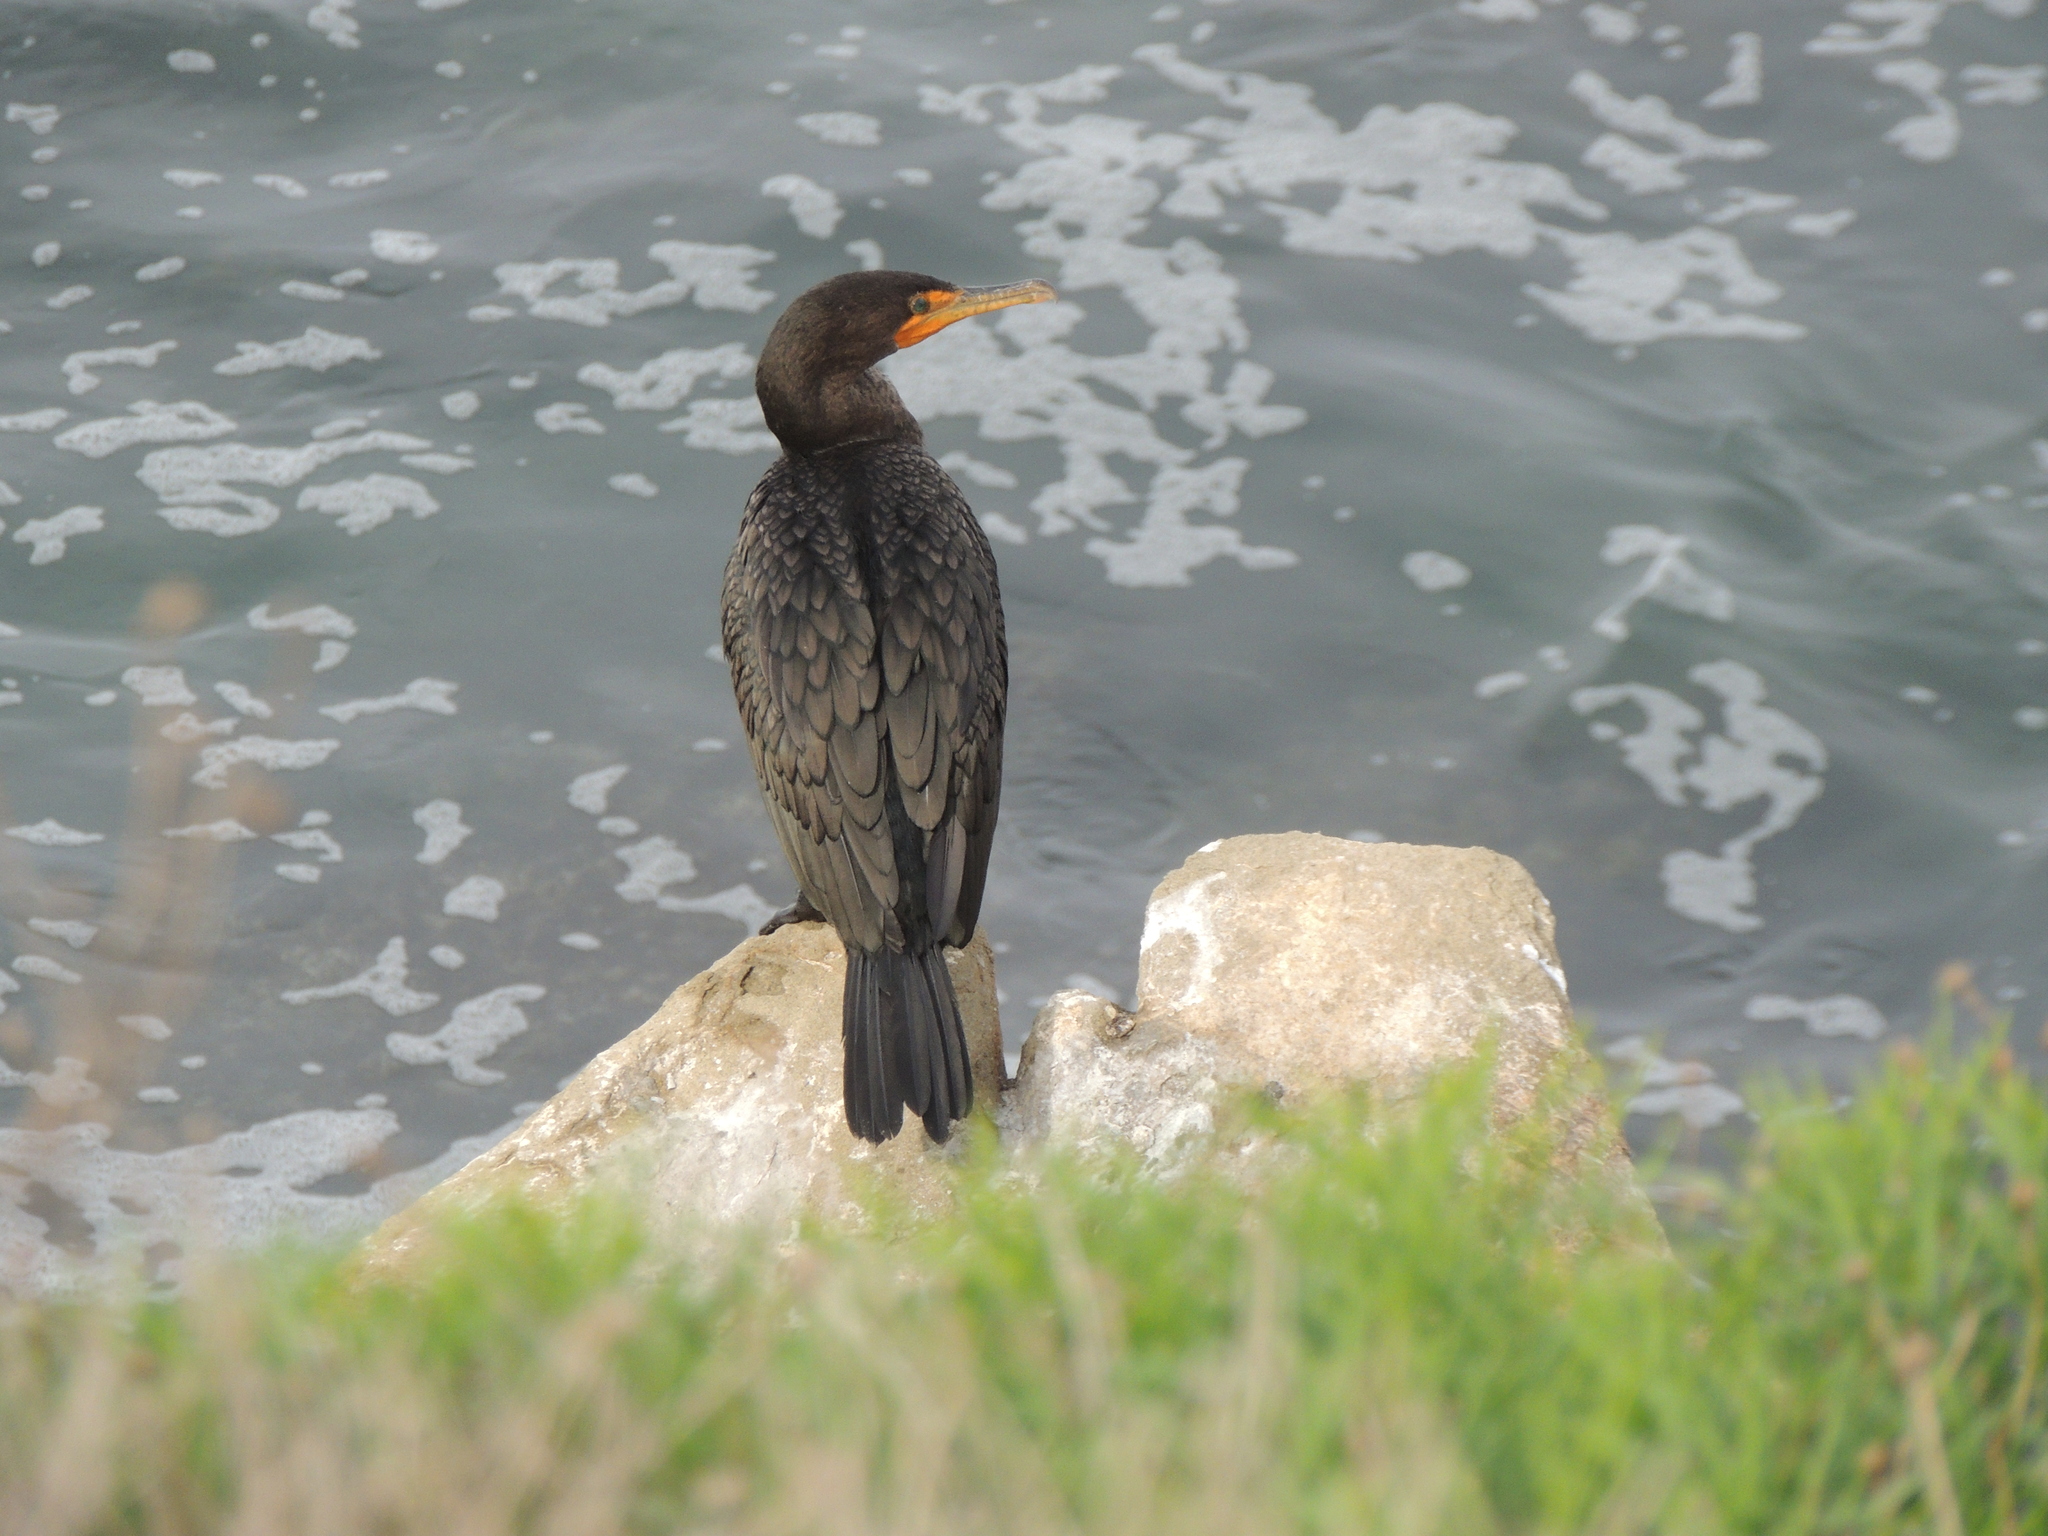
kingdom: Animalia
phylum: Chordata
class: Aves
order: Suliformes
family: Phalacrocoracidae
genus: Phalacrocorax
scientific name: Phalacrocorax auritus
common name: Double-crested cormorant
